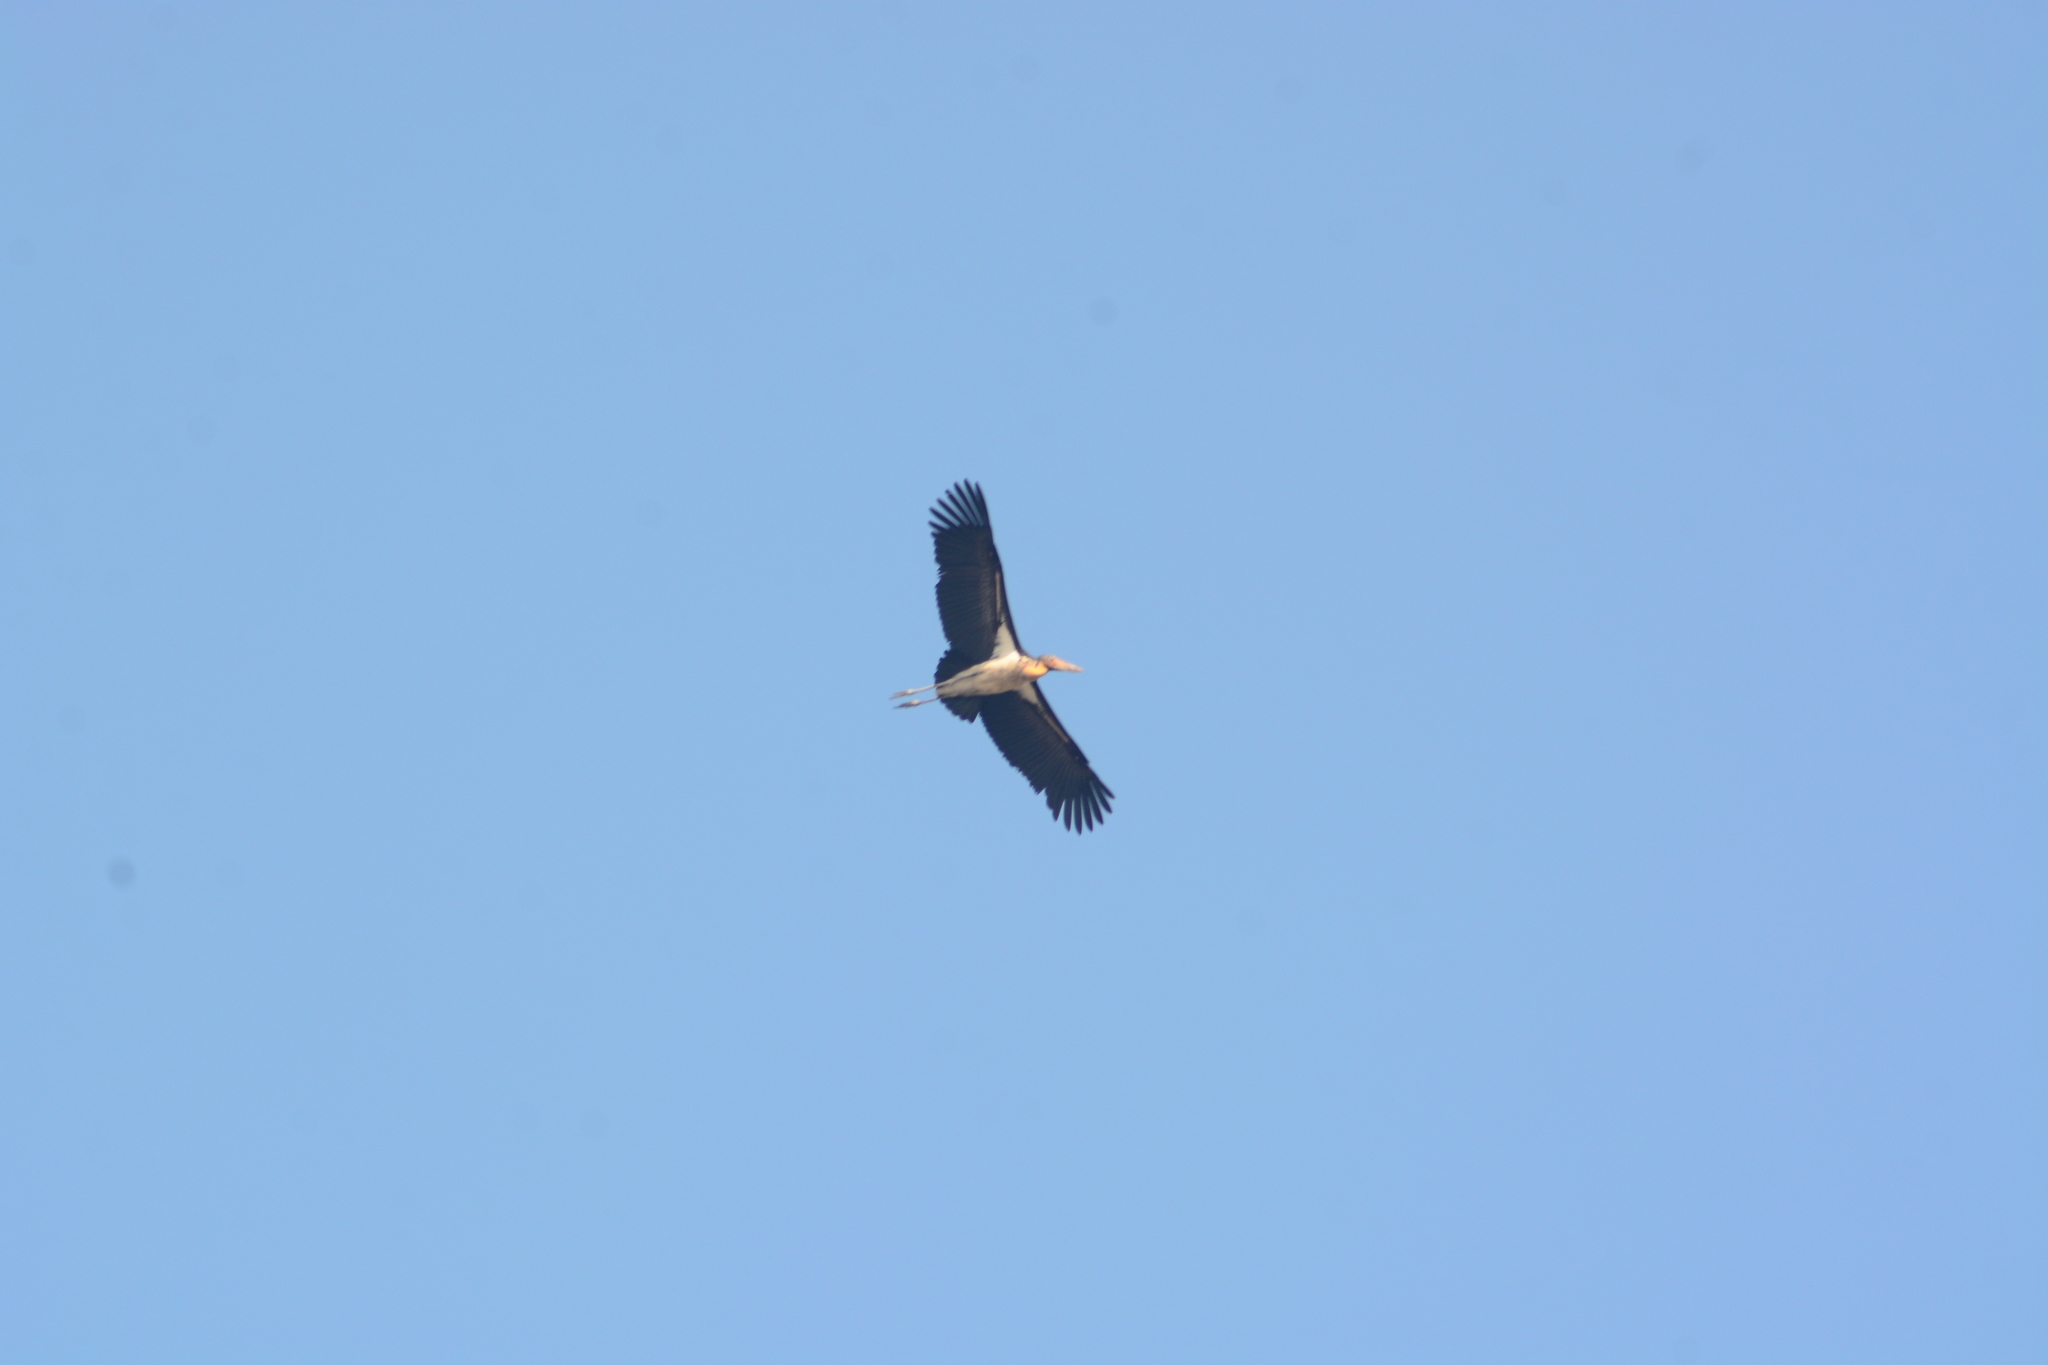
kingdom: Animalia
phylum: Chordata
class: Aves
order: Ciconiiformes
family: Ciconiidae
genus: Leptoptilos
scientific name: Leptoptilos javanicus
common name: Lesser adjutant
